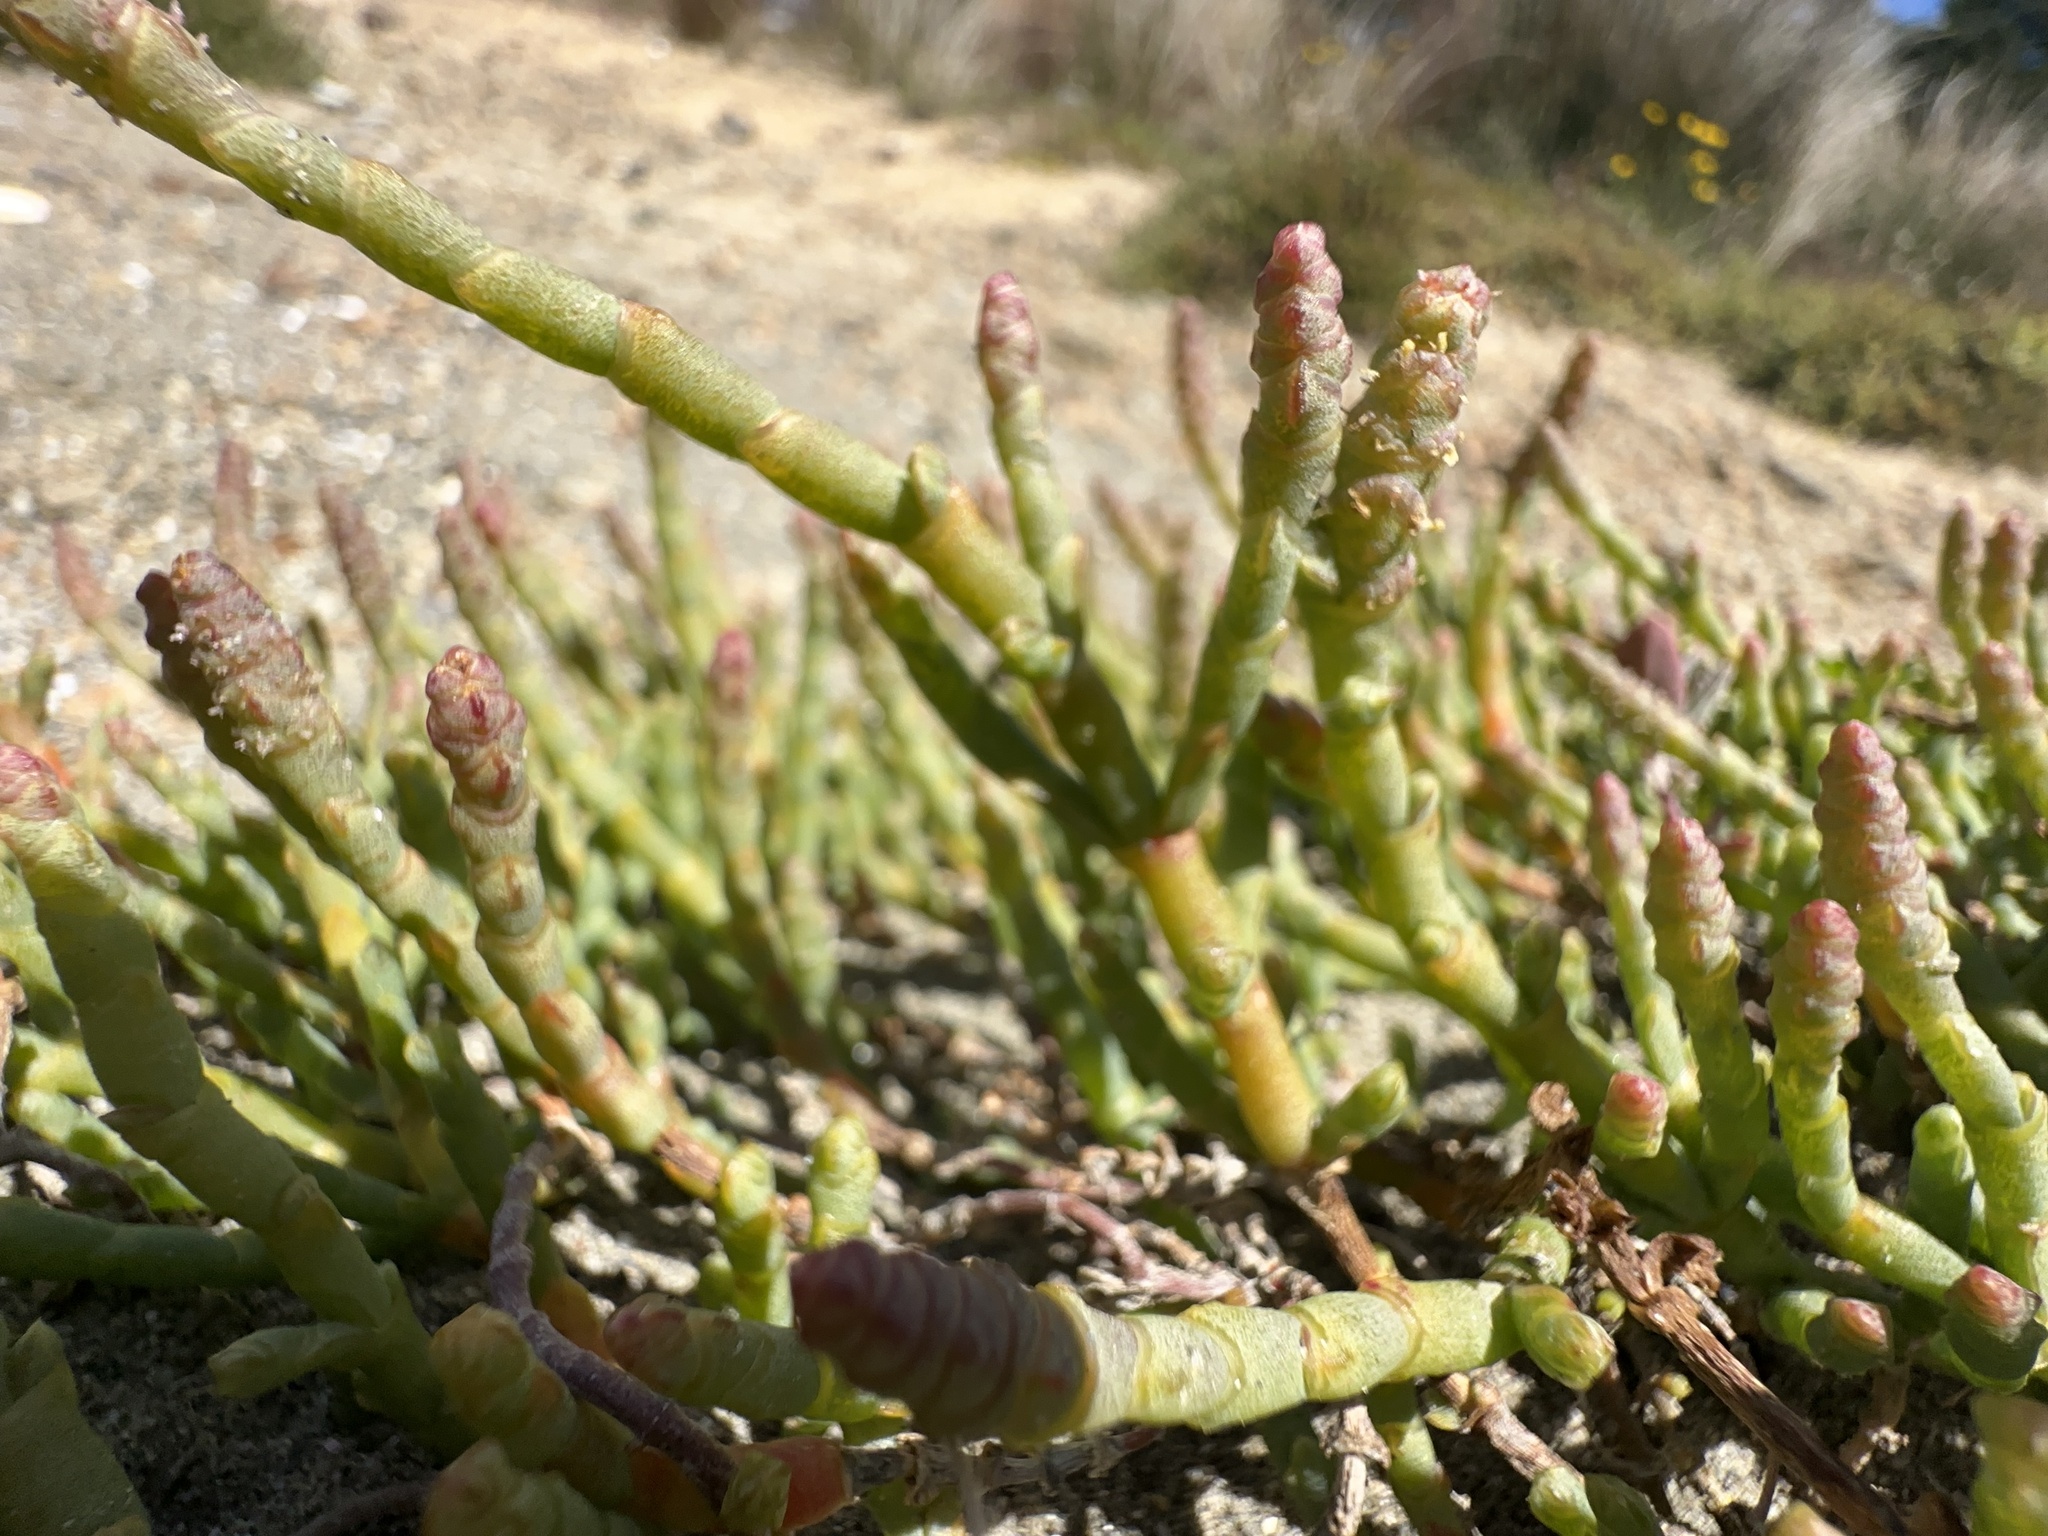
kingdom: Plantae
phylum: Tracheophyta
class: Magnoliopsida
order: Caryophyllales
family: Amaranthaceae
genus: Salicornia
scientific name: Salicornia quinqueflora
